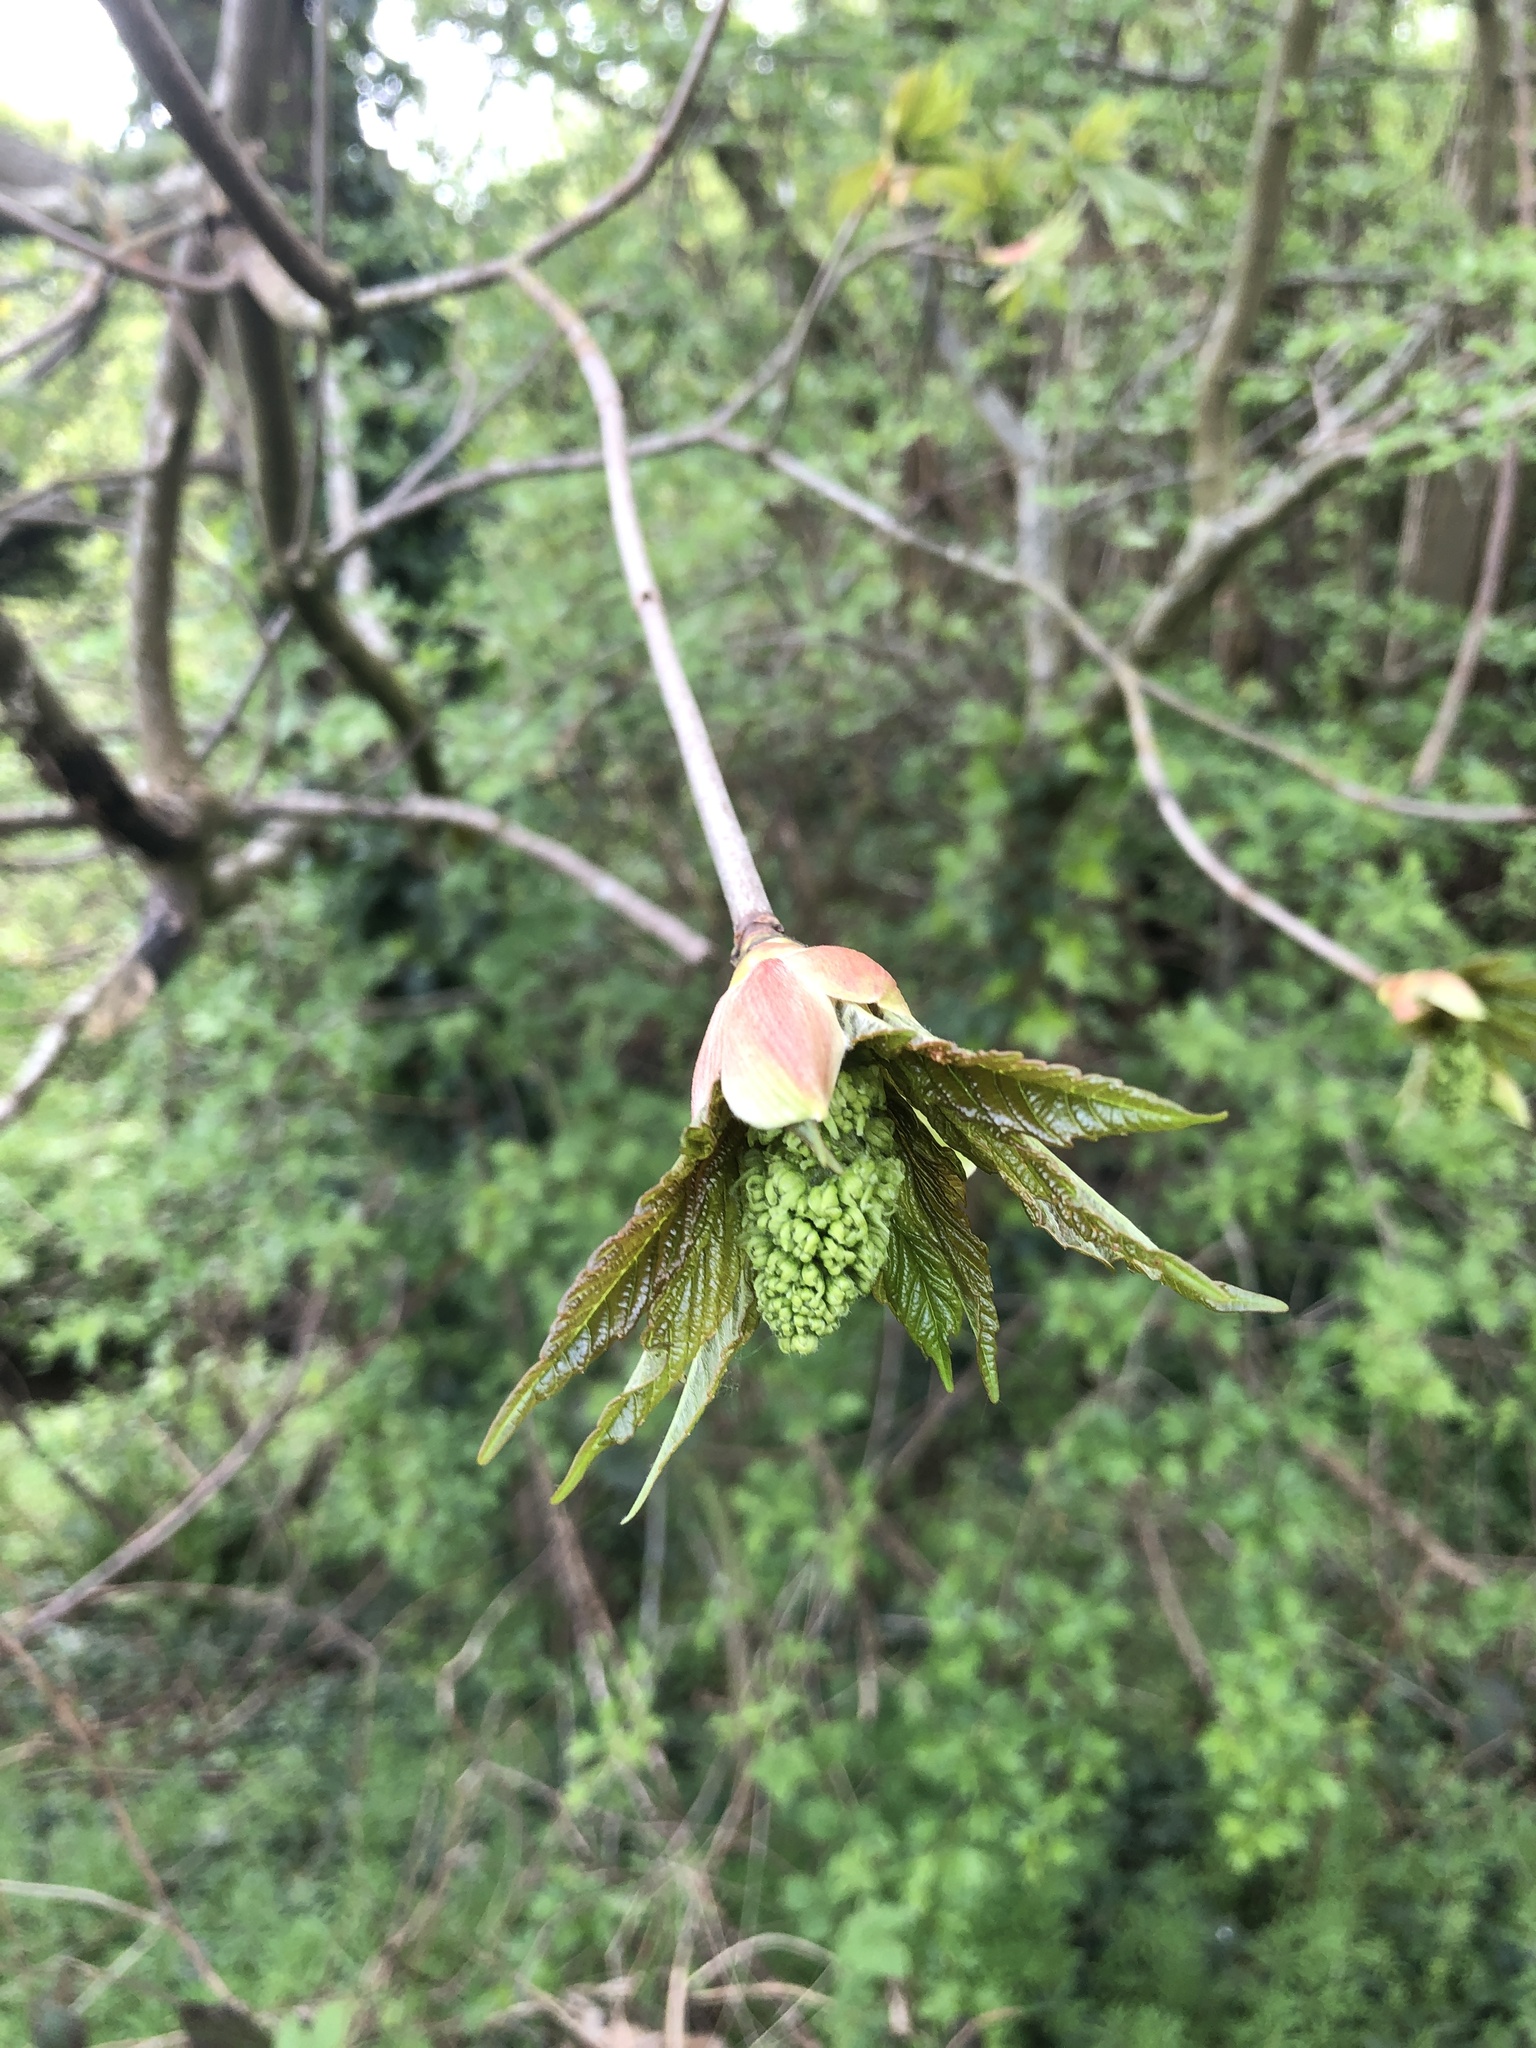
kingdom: Plantae
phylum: Tracheophyta
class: Magnoliopsida
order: Sapindales
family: Sapindaceae
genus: Acer
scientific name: Acer pseudoplatanus
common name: Sycamore
